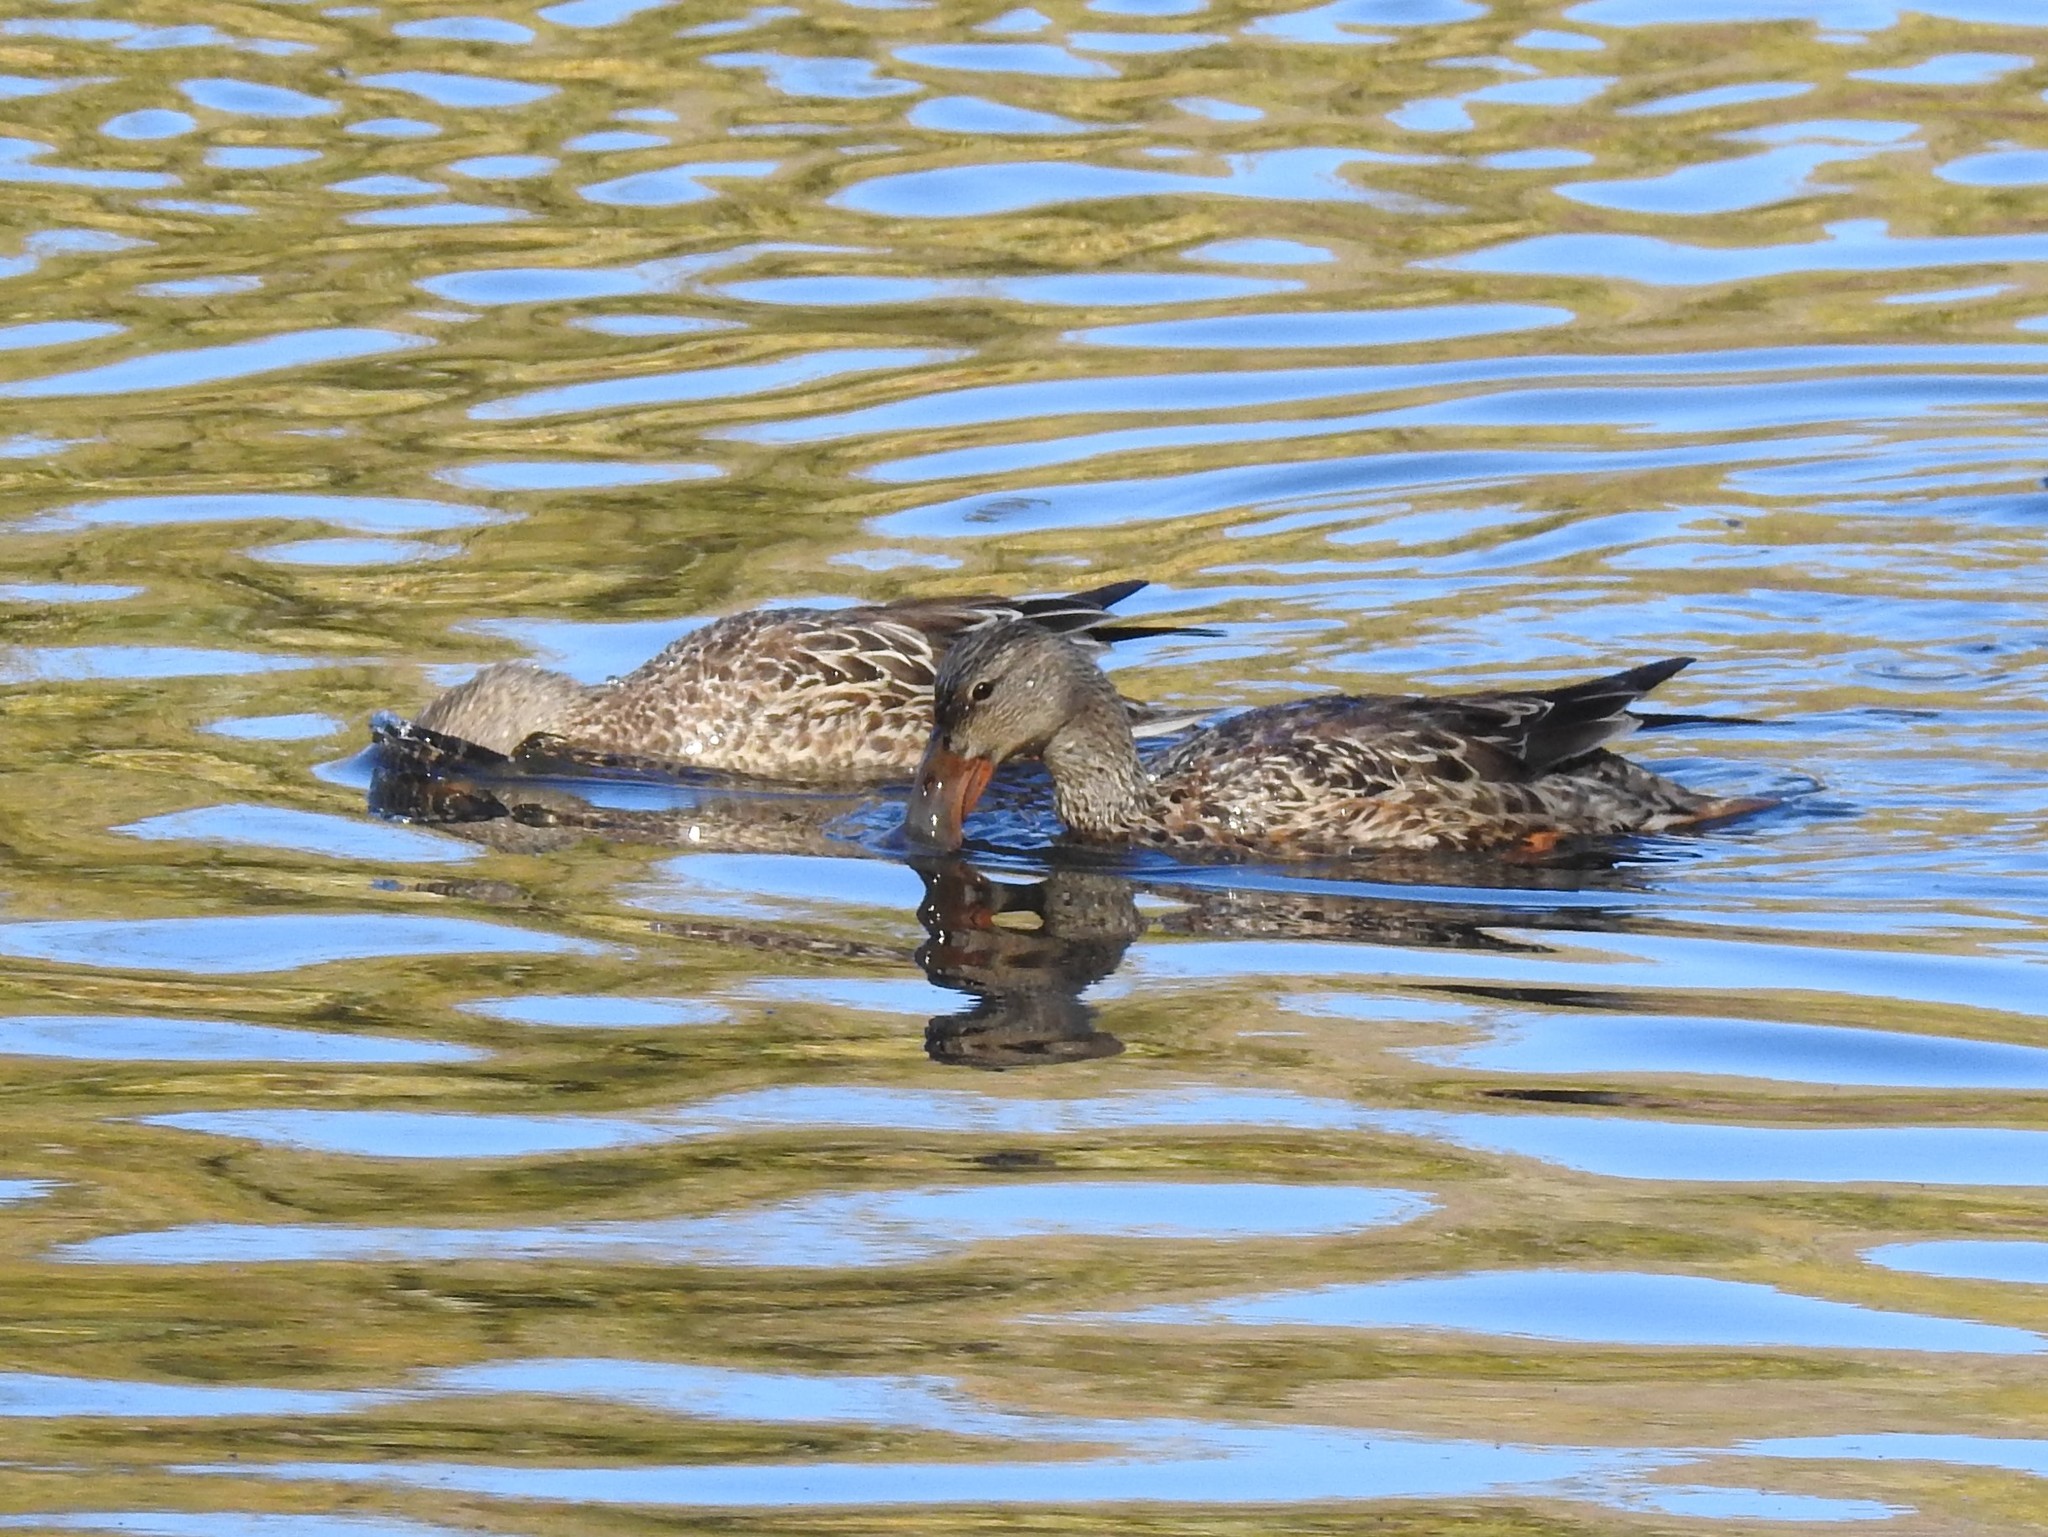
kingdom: Animalia
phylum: Chordata
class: Aves
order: Anseriformes
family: Anatidae
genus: Spatula
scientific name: Spatula clypeata
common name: Northern shoveler
